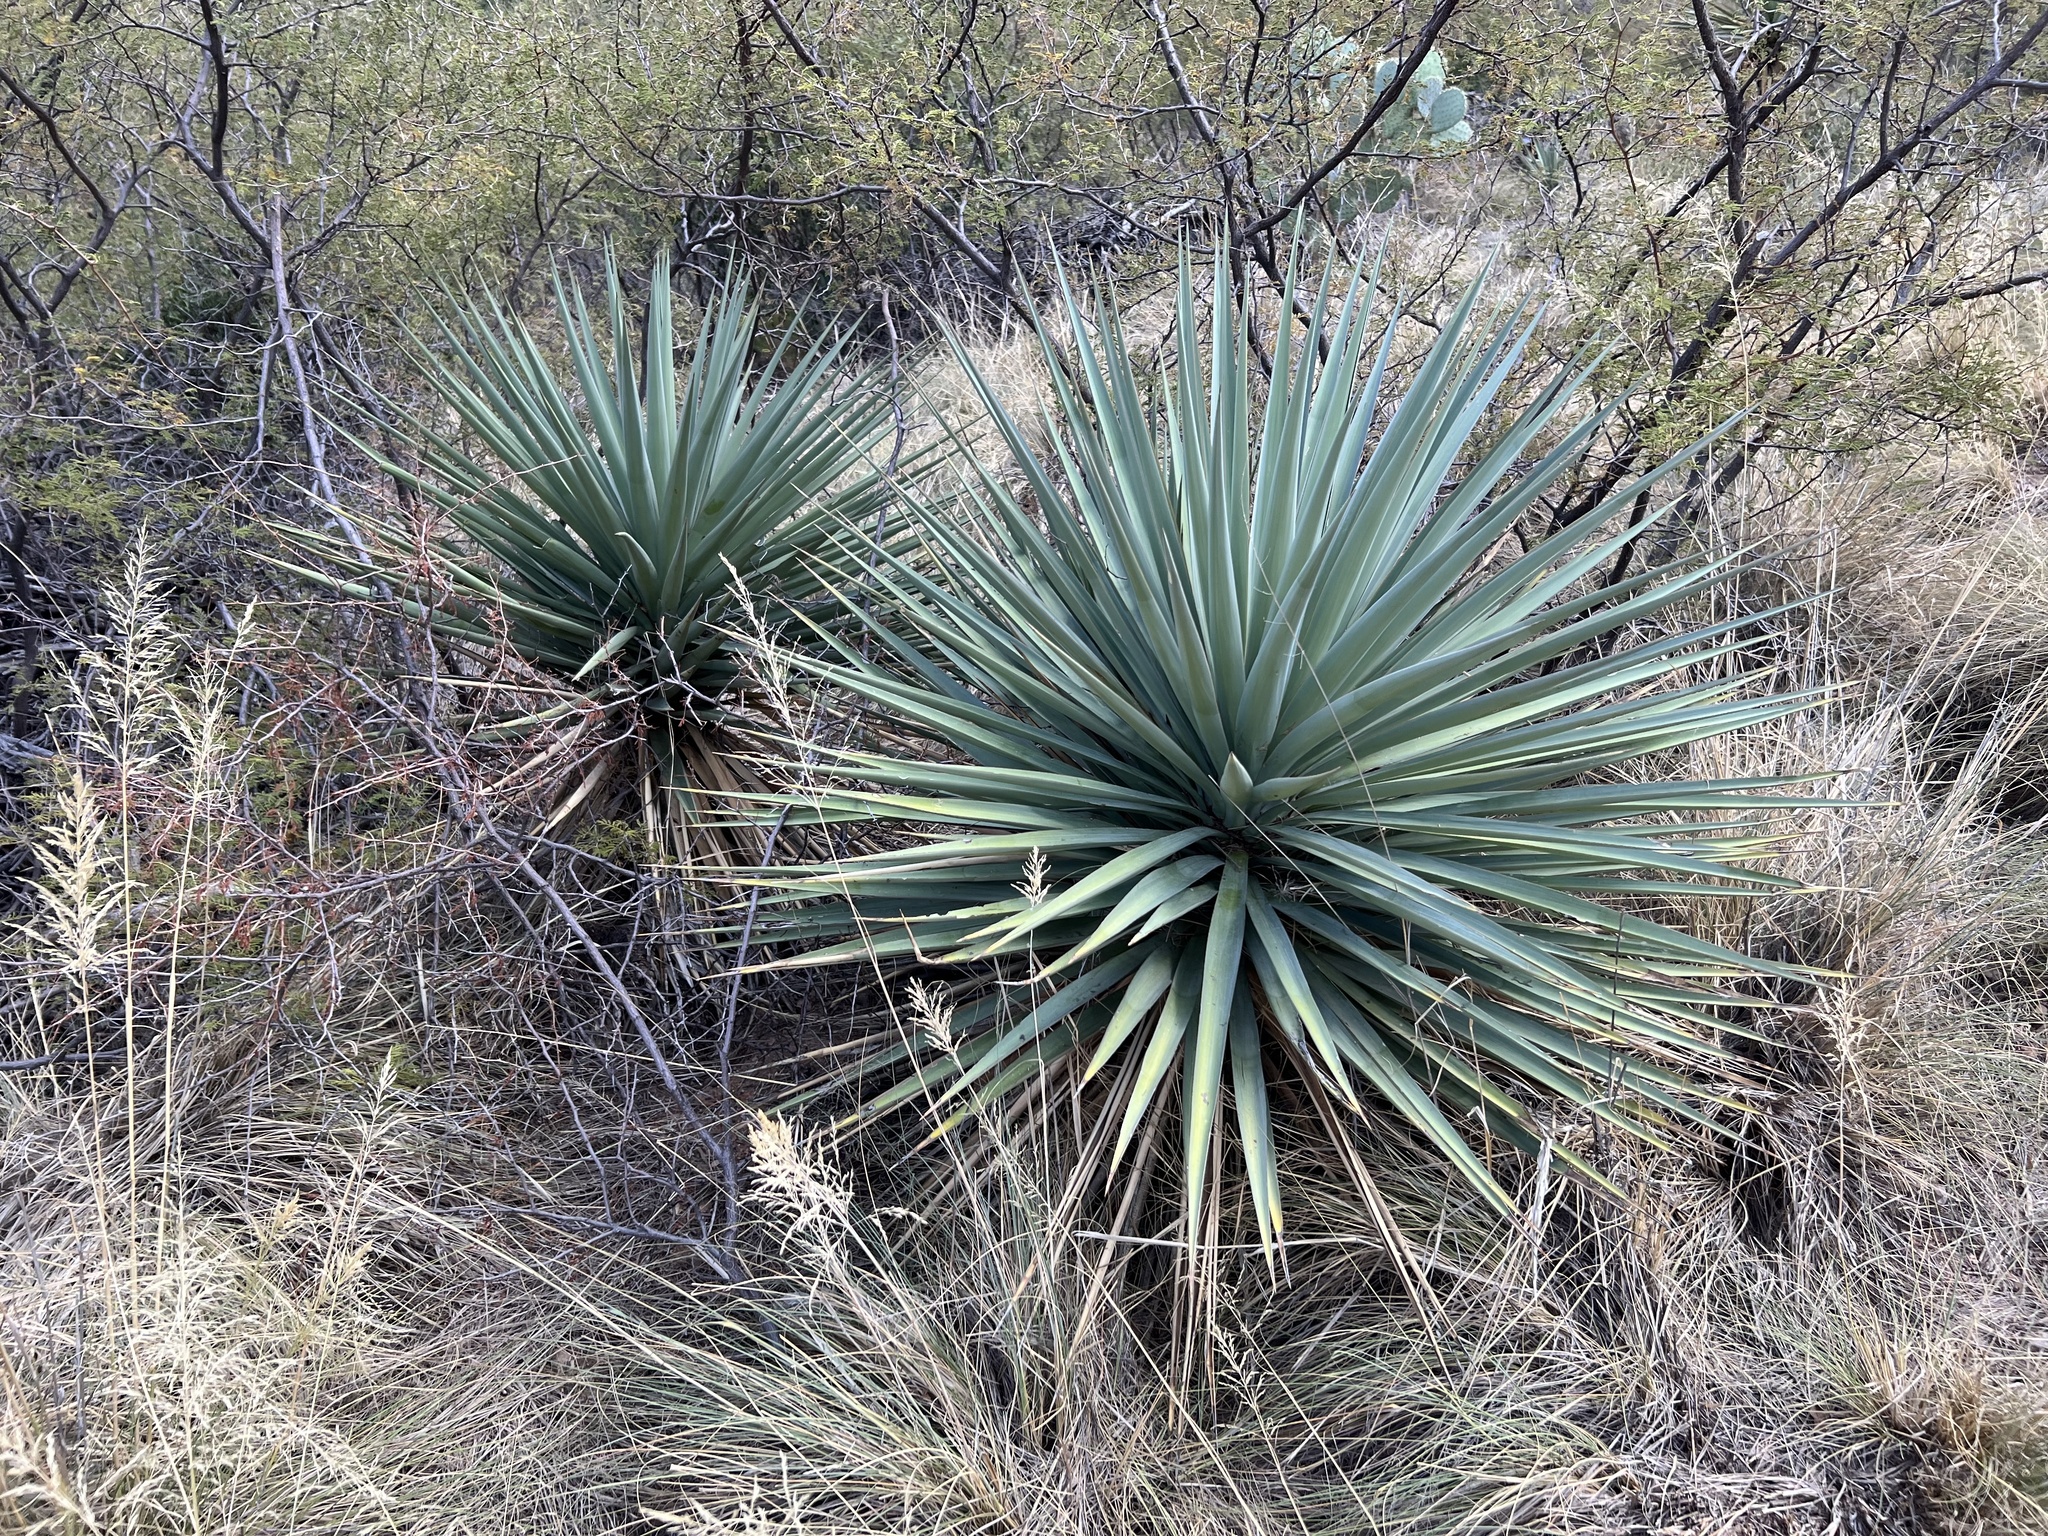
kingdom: Plantae
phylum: Tracheophyta
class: Liliopsida
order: Asparagales
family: Asparagaceae
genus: Yucca
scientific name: Yucca schottii
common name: Hoary yucca
